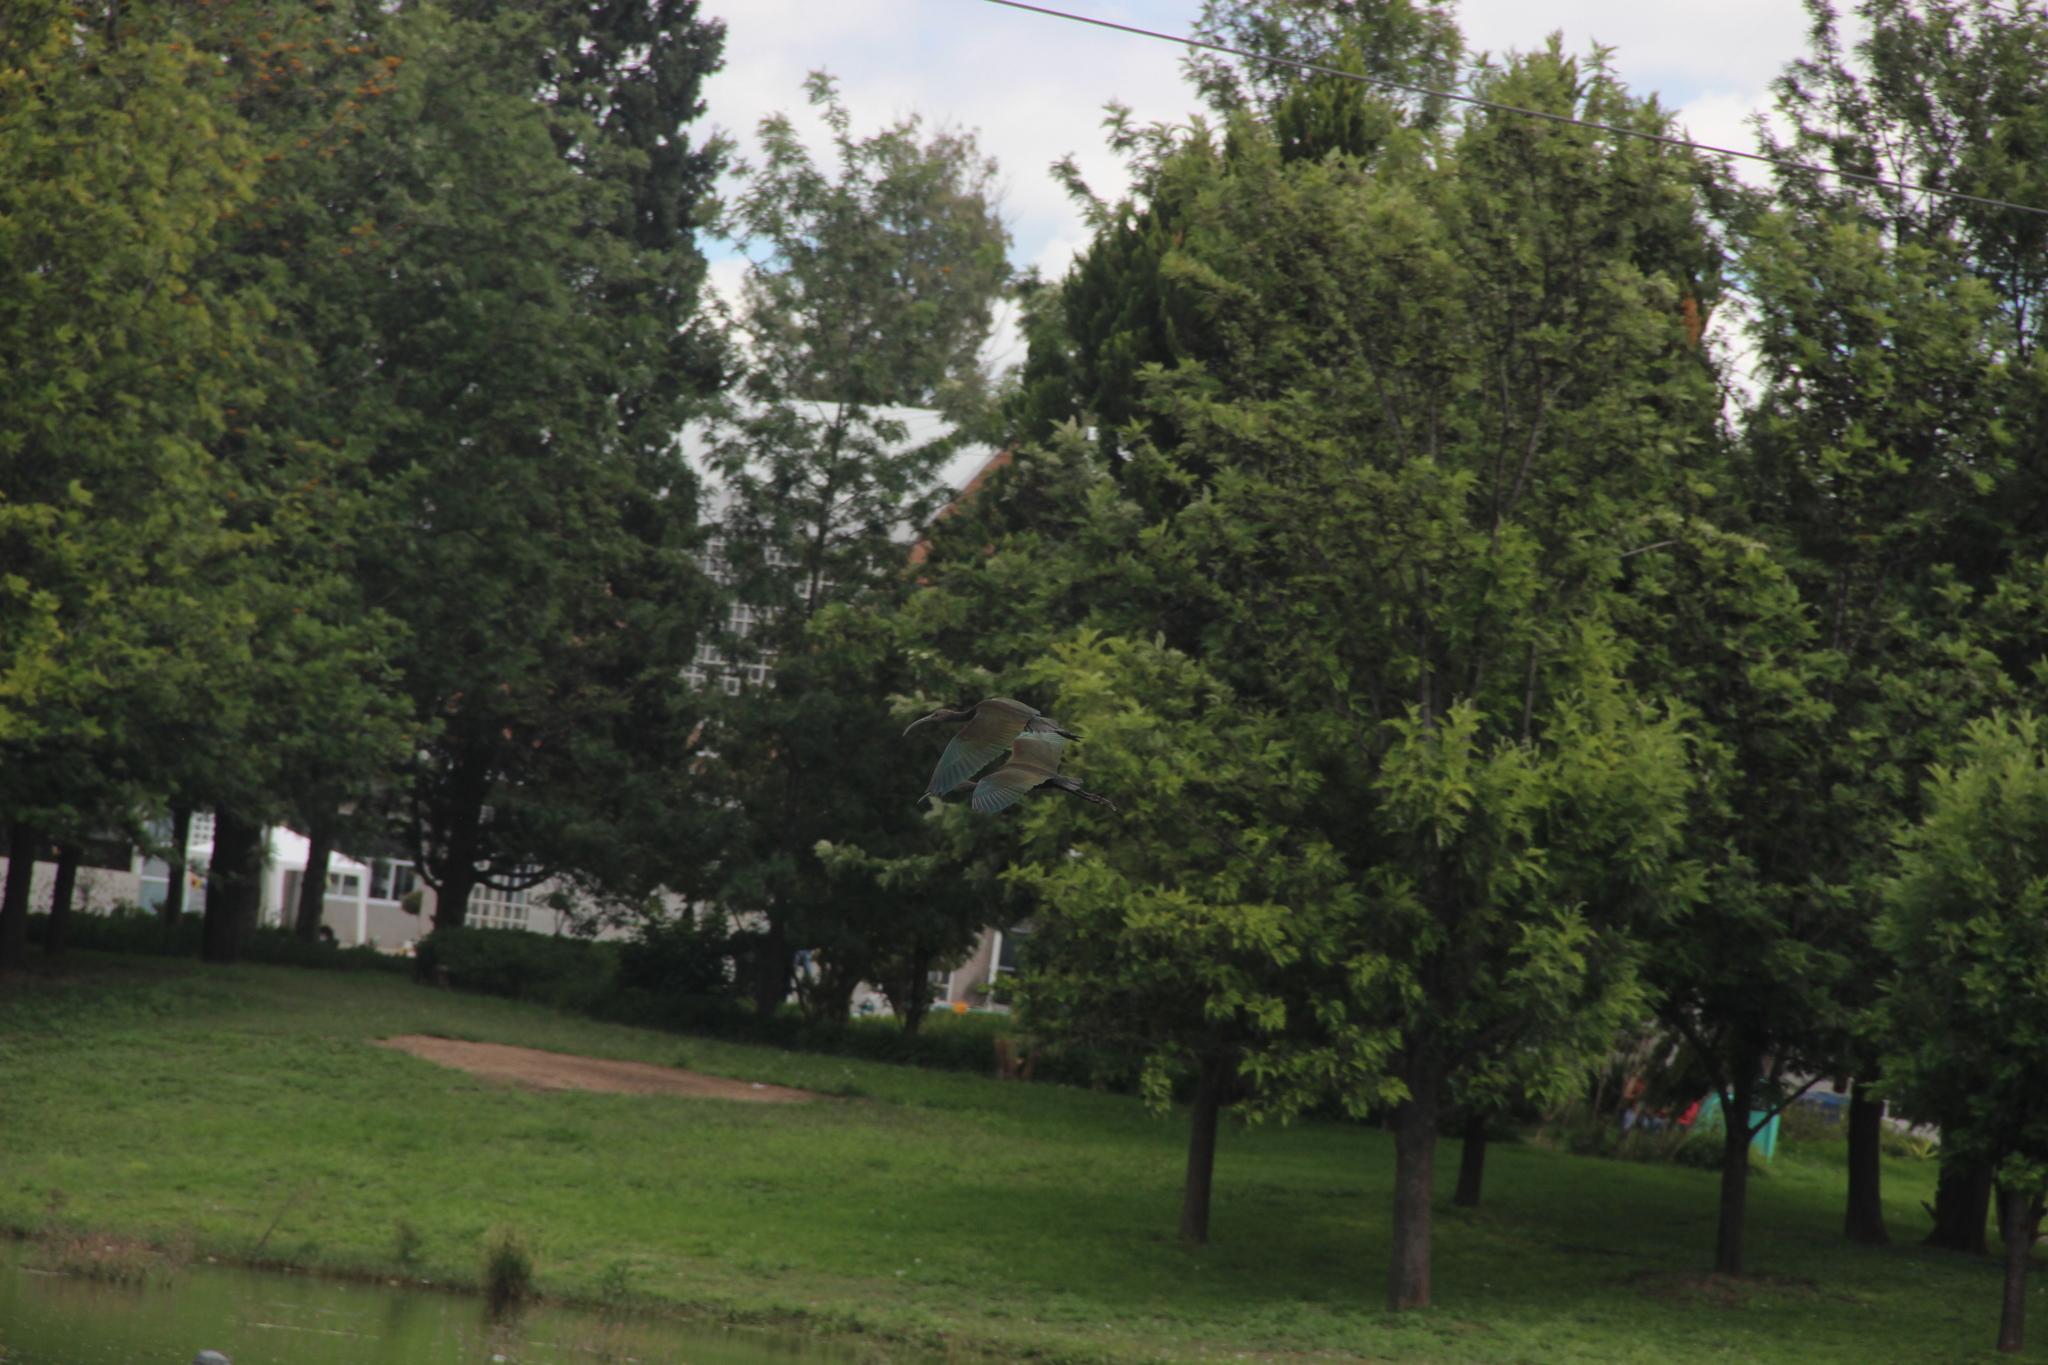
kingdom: Animalia
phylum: Chordata
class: Aves
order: Pelecaniformes
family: Threskiornithidae
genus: Plegadis
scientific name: Plegadis chihi
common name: White-faced ibis
